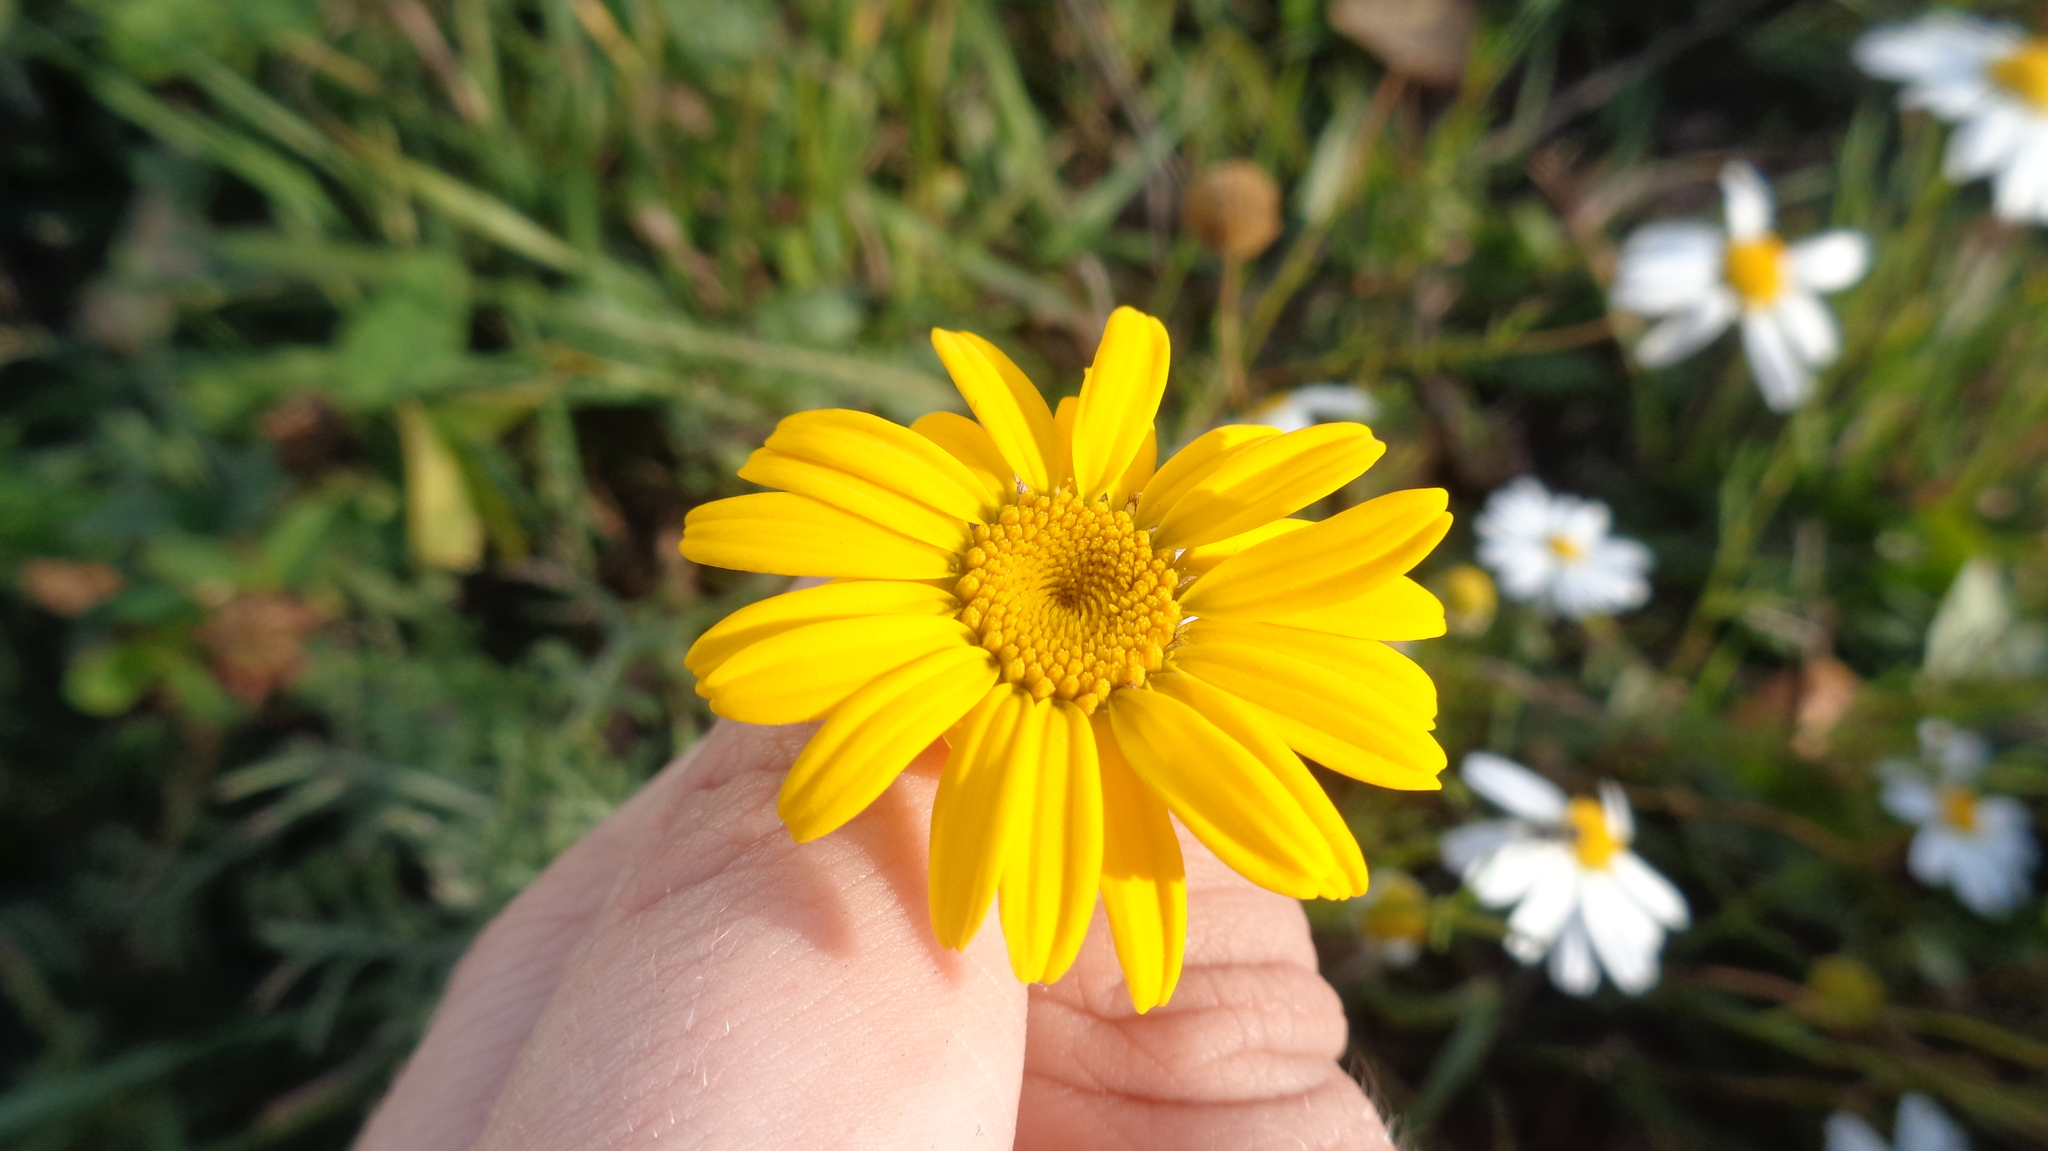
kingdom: Plantae
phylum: Tracheophyta
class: Magnoliopsida
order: Asterales
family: Asteraceae
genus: Cota
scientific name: Cota tinctoria
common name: Golden chamomile
